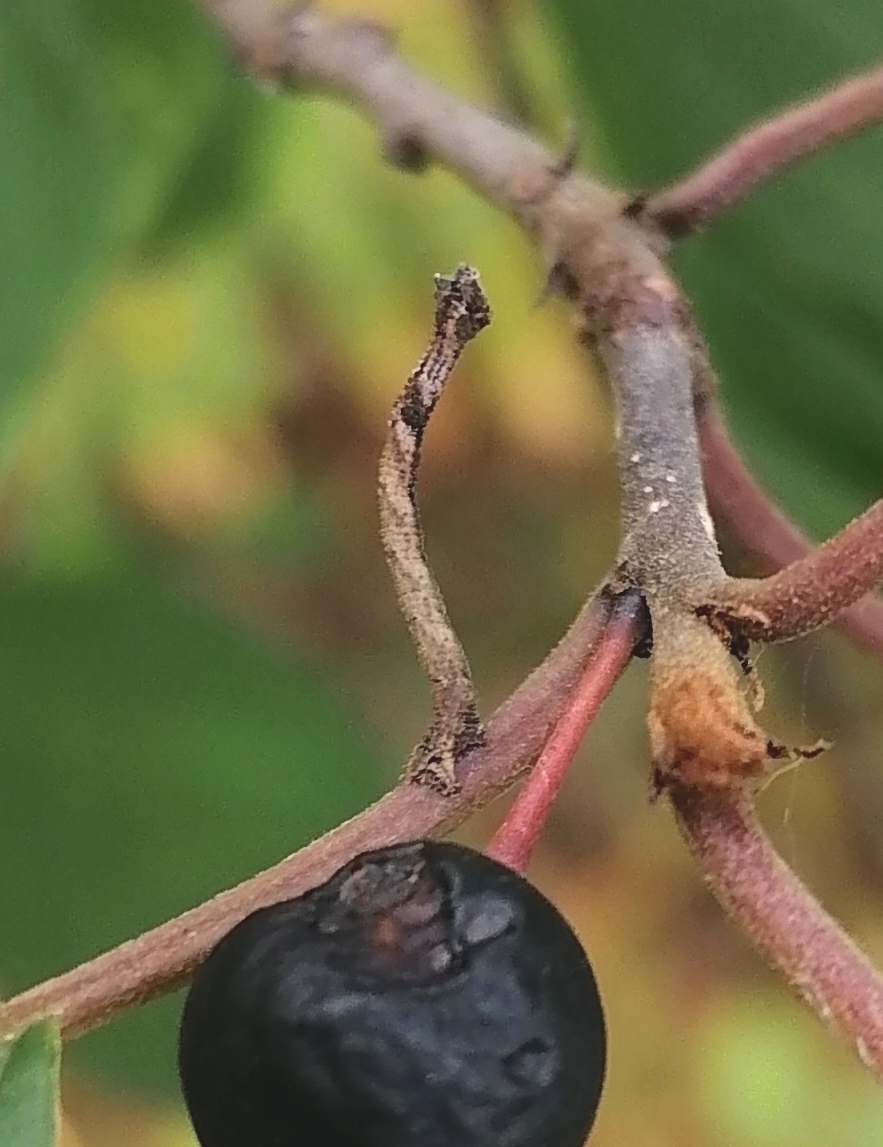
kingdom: Animalia
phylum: Arthropoda
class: Insecta
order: Lepidoptera
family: Geometridae
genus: Hemithea
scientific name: Hemithea aestivaria
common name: Common emerald
